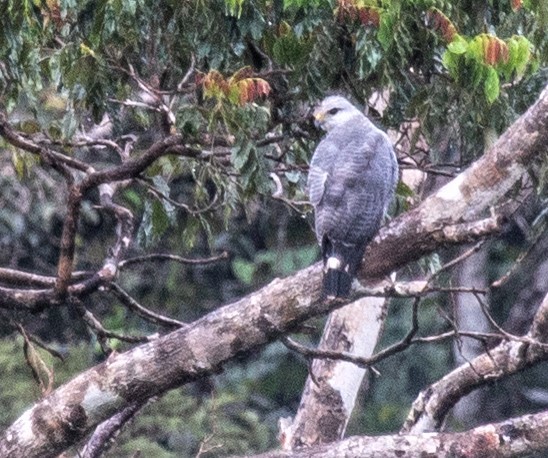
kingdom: Animalia
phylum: Chordata
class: Aves
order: Accipitriformes
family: Accipitridae
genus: Buteo
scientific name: Buteo nitidus
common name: Grey-lined hawk
